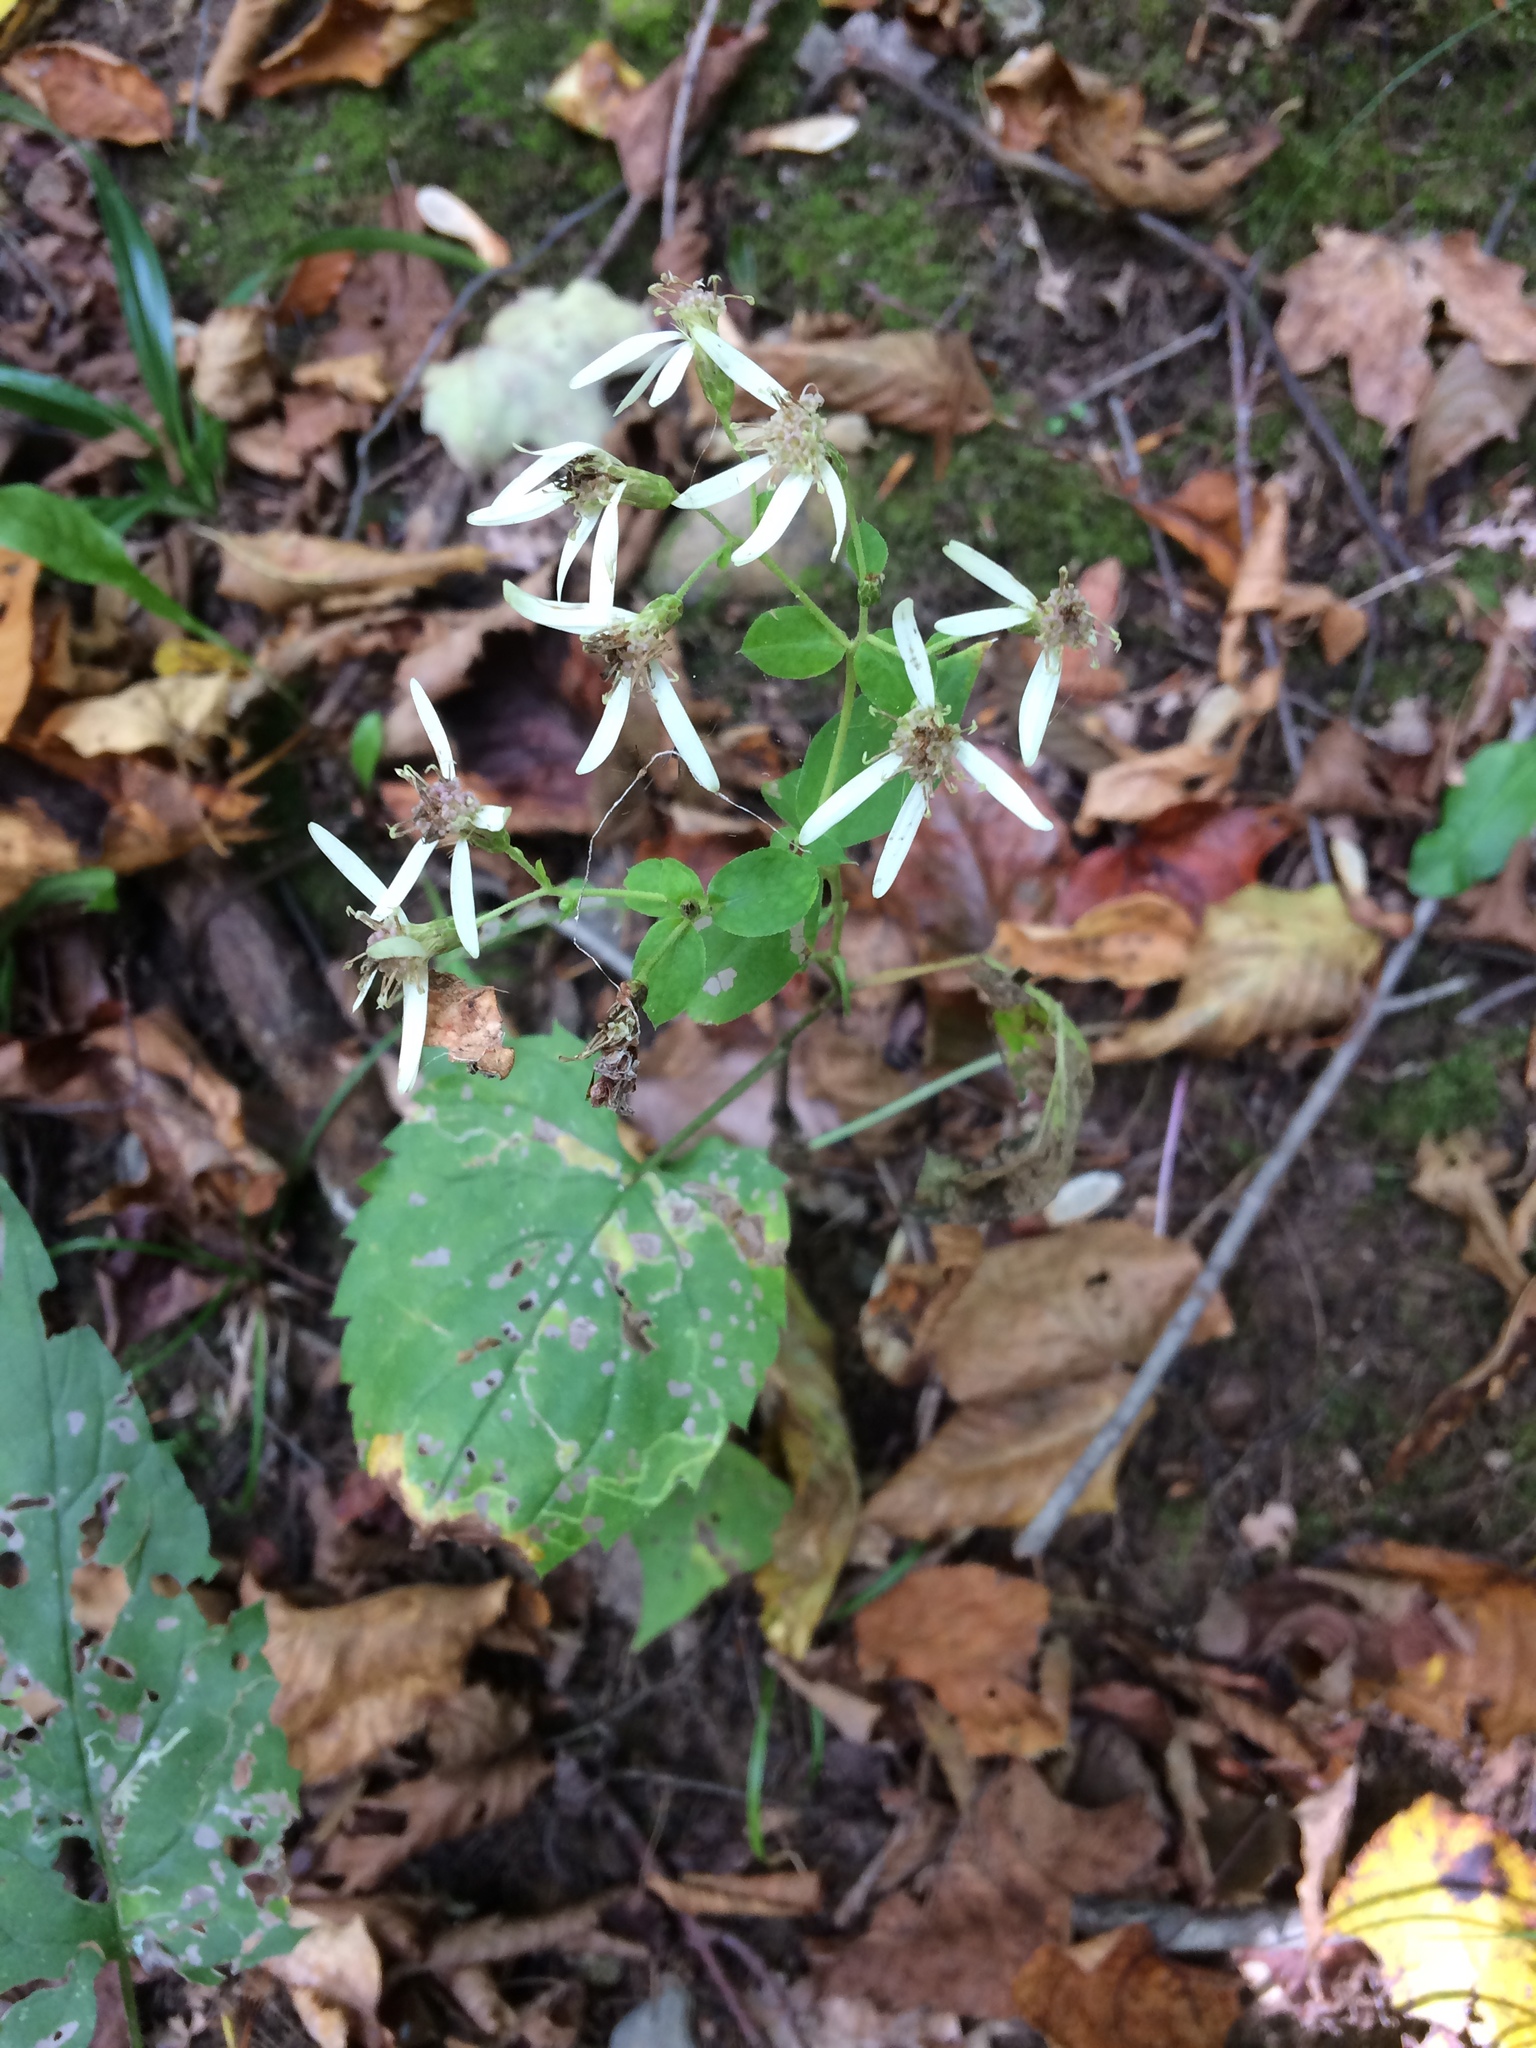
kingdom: Plantae
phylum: Tracheophyta
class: Magnoliopsida
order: Asterales
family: Asteraceae
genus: Eurybia
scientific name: Eurybia divaricata
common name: White wood aster
